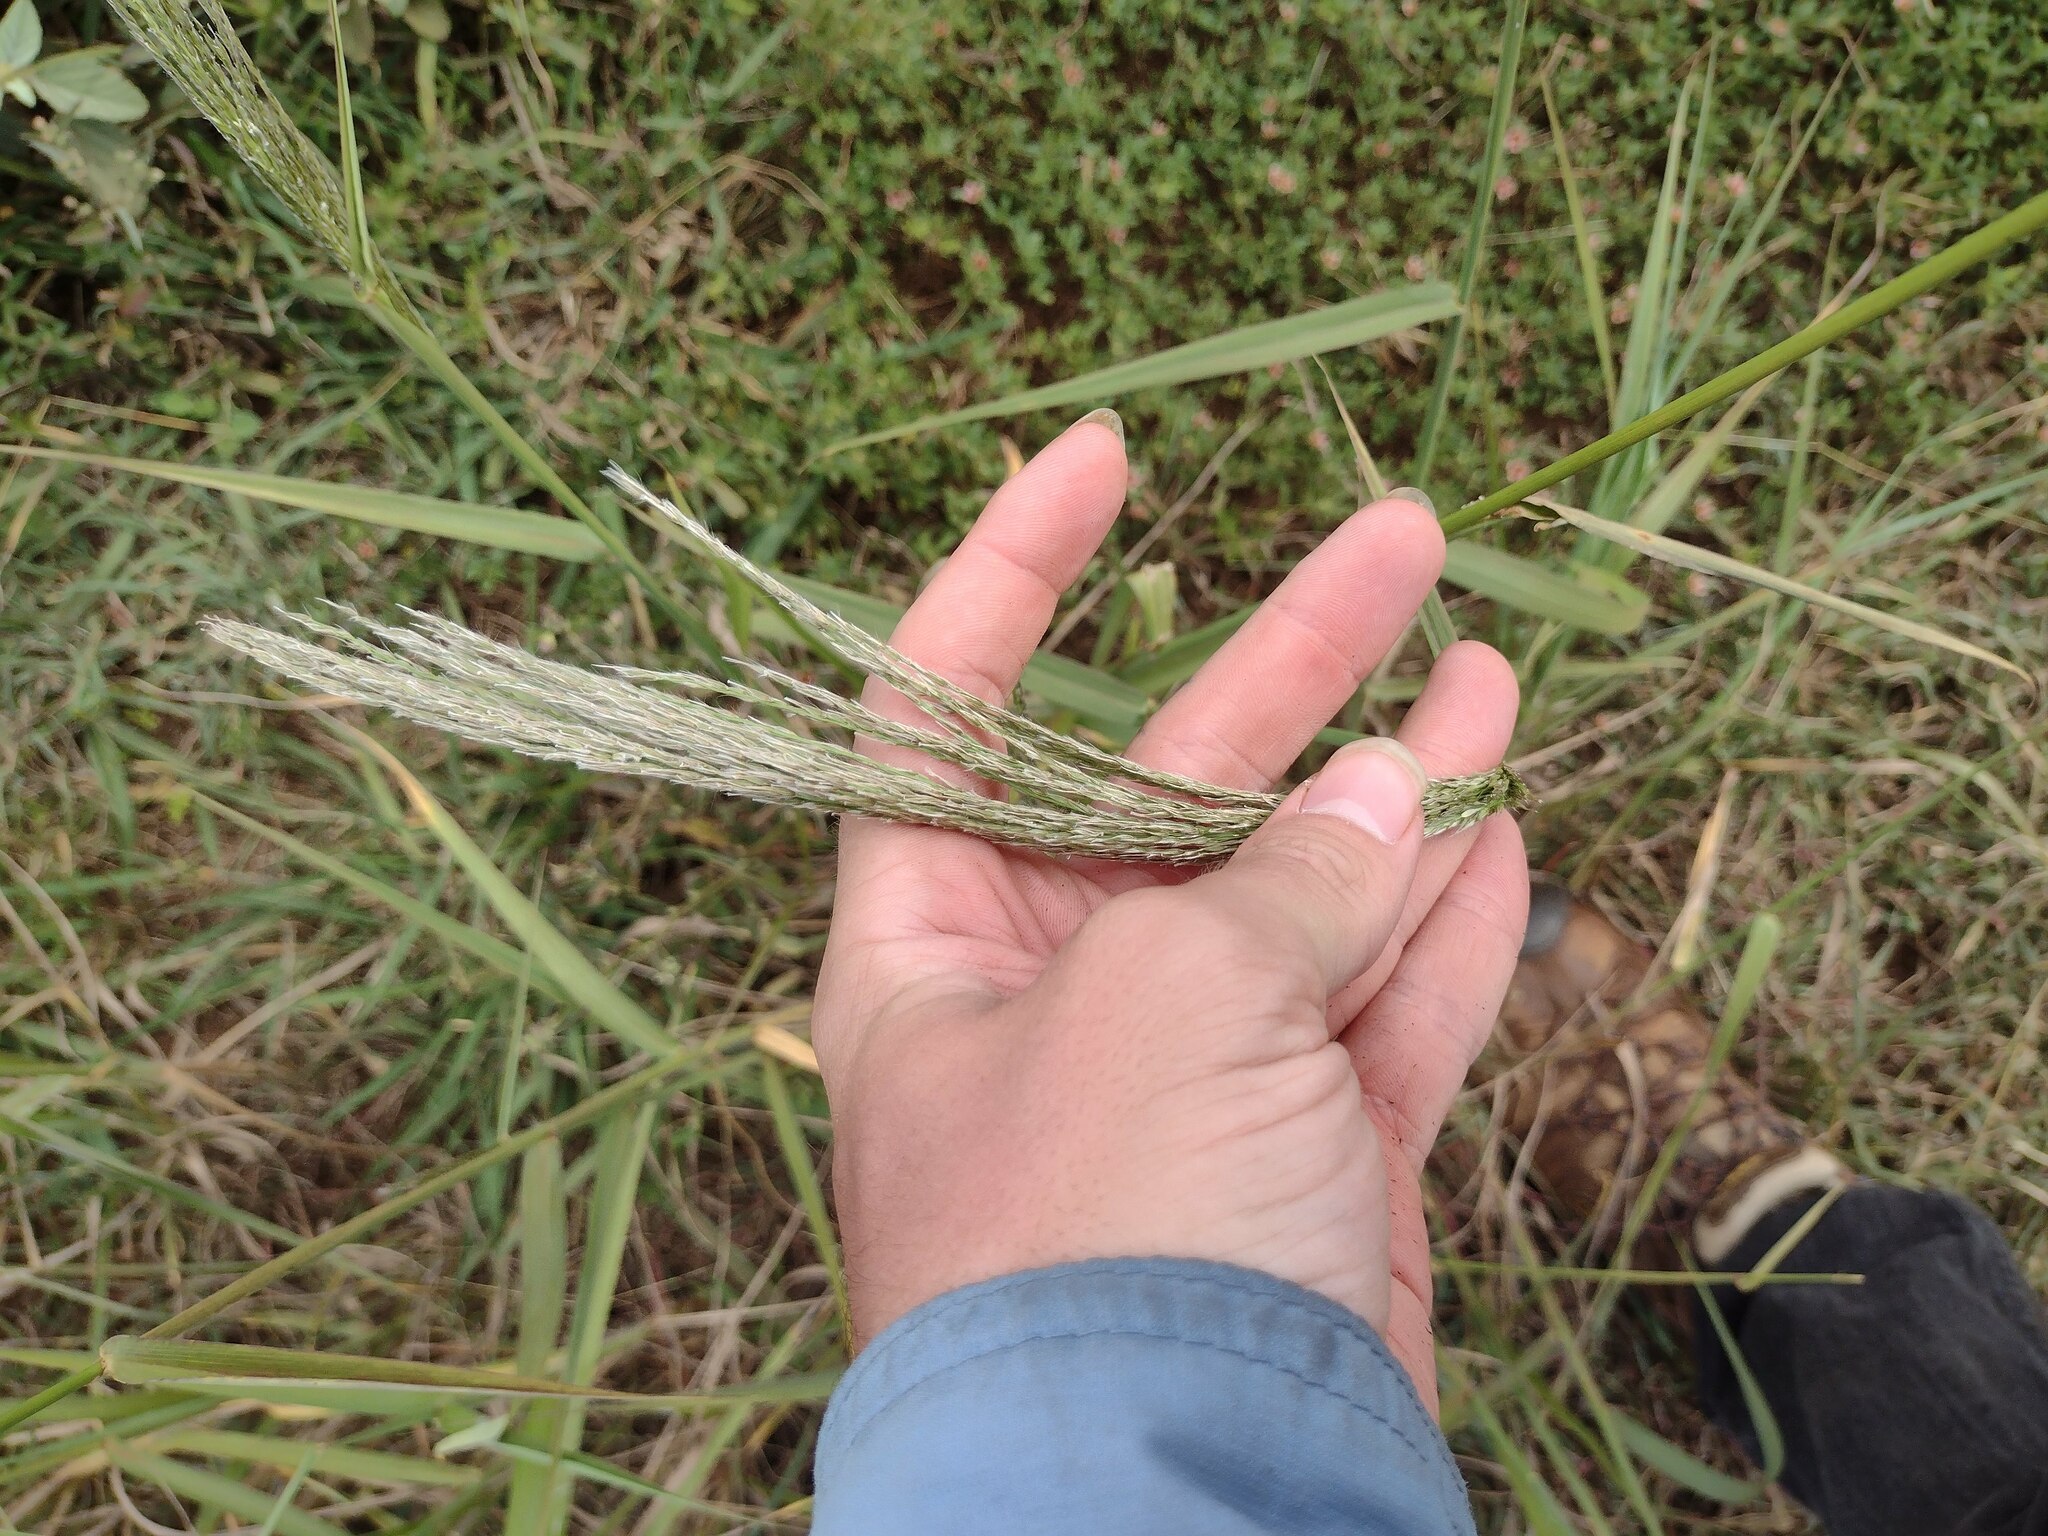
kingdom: Plantae
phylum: Tracheophyta
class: Liliopsida
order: Poales
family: Poaceae
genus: Digitaria
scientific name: Digitaria insularis
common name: Sourgrass
